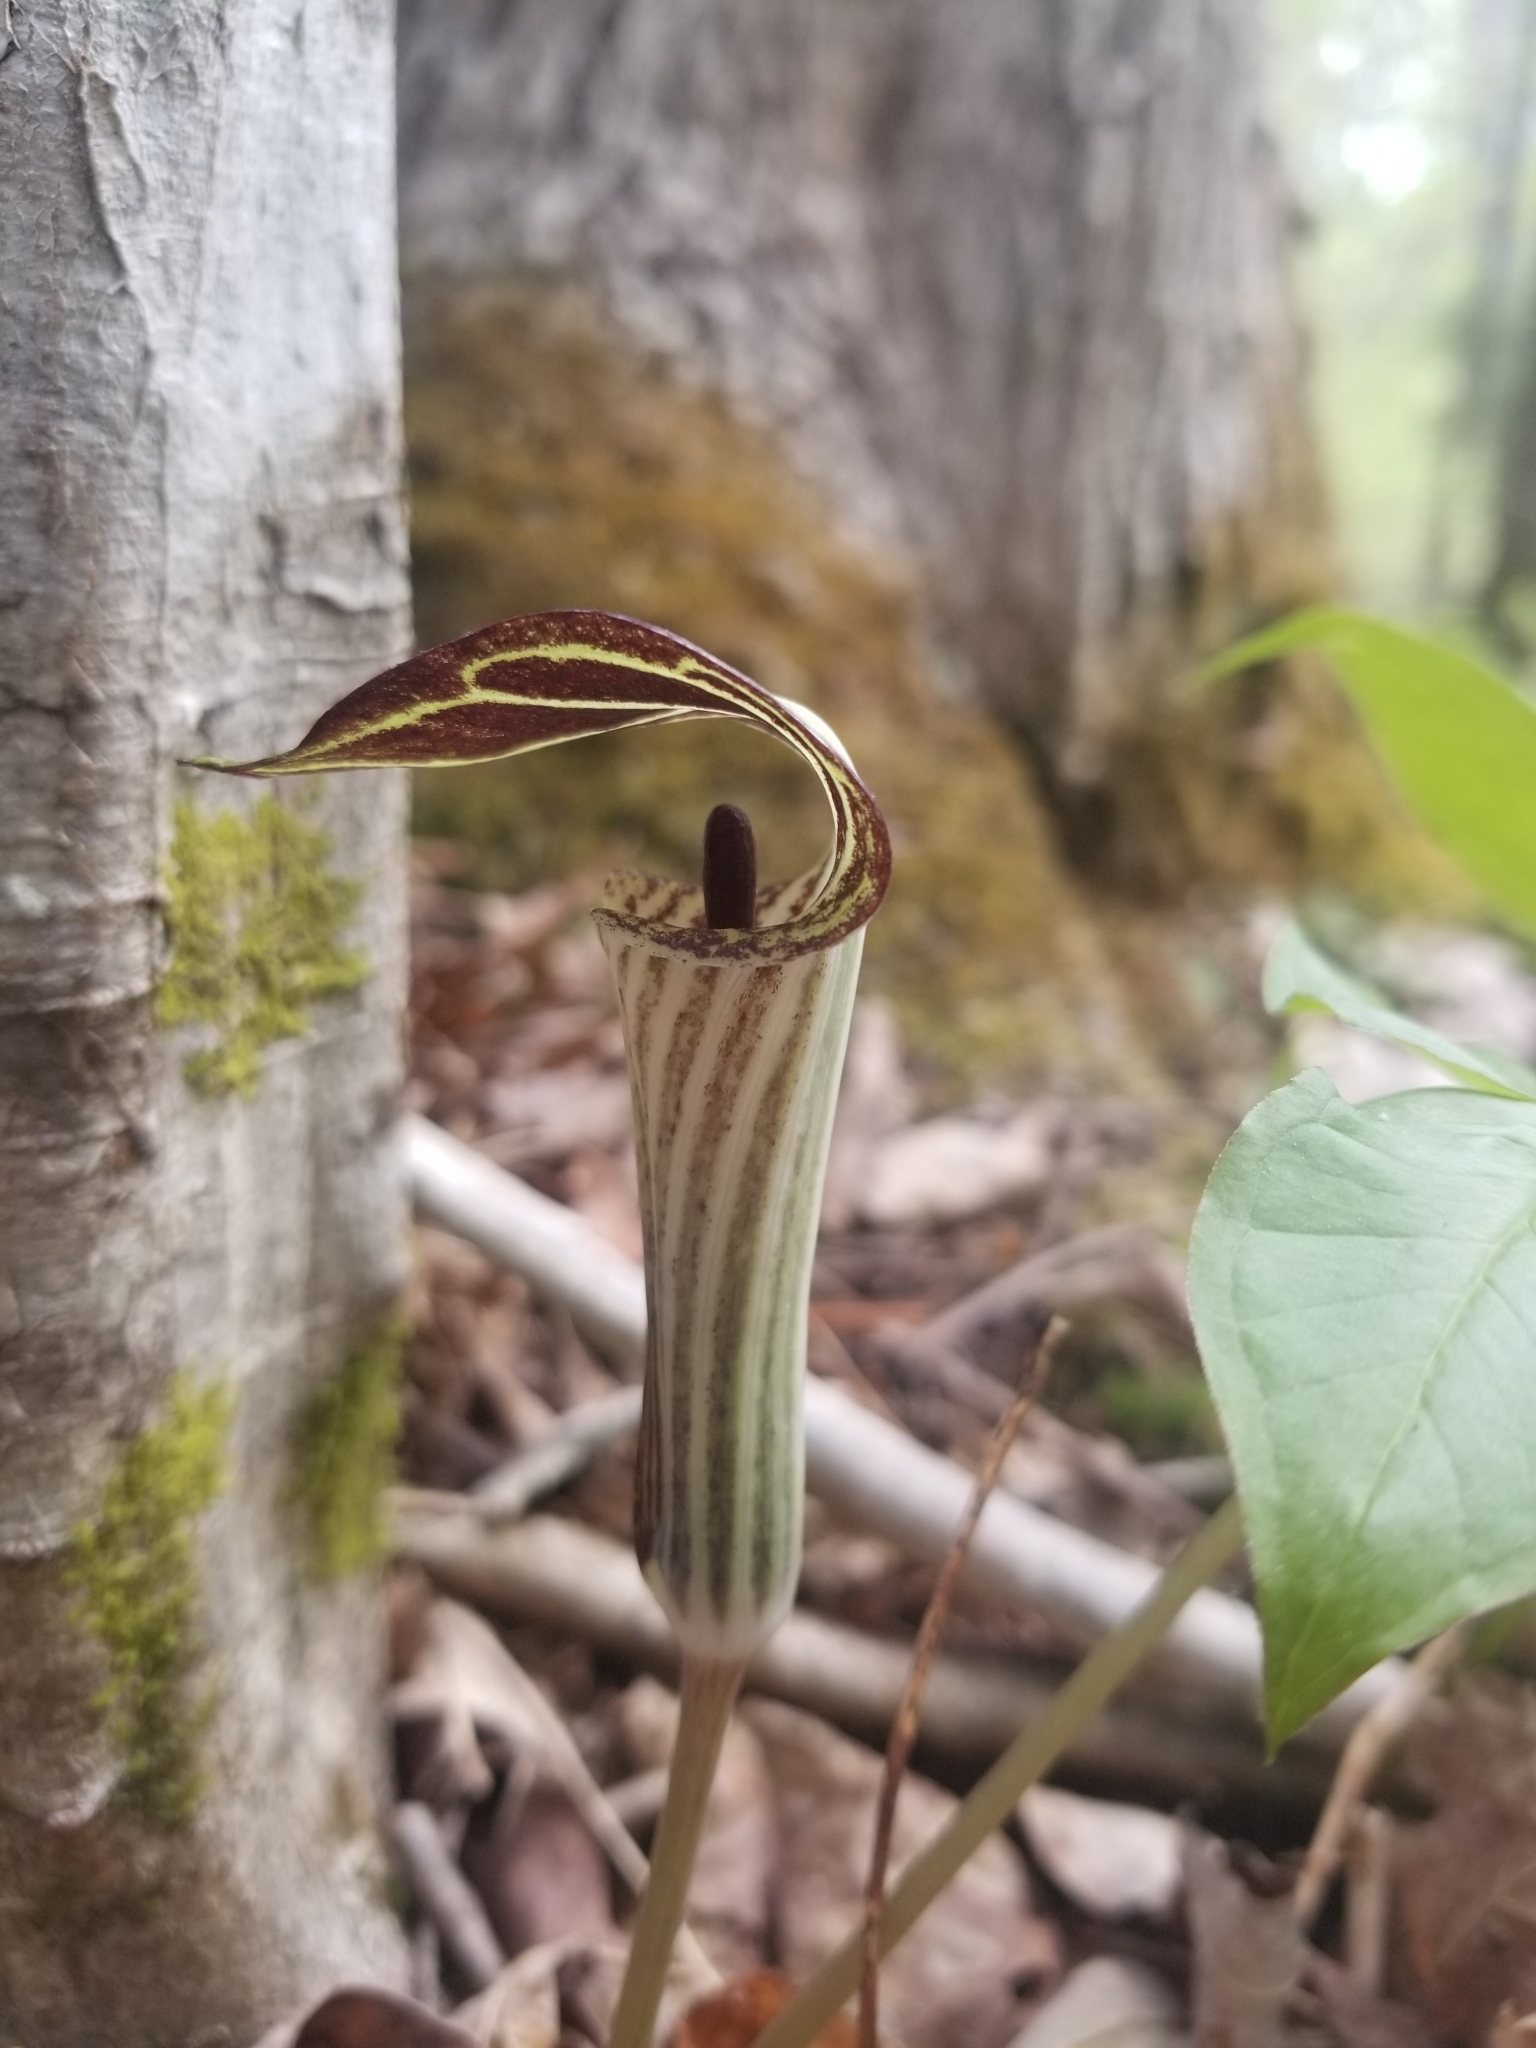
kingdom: Plantae
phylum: Tracheophyta
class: Liliopsida
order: Alismatales
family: Araceae
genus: Arisaema
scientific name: Arisaema triphyllum
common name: Jack-in-the-pulpit
